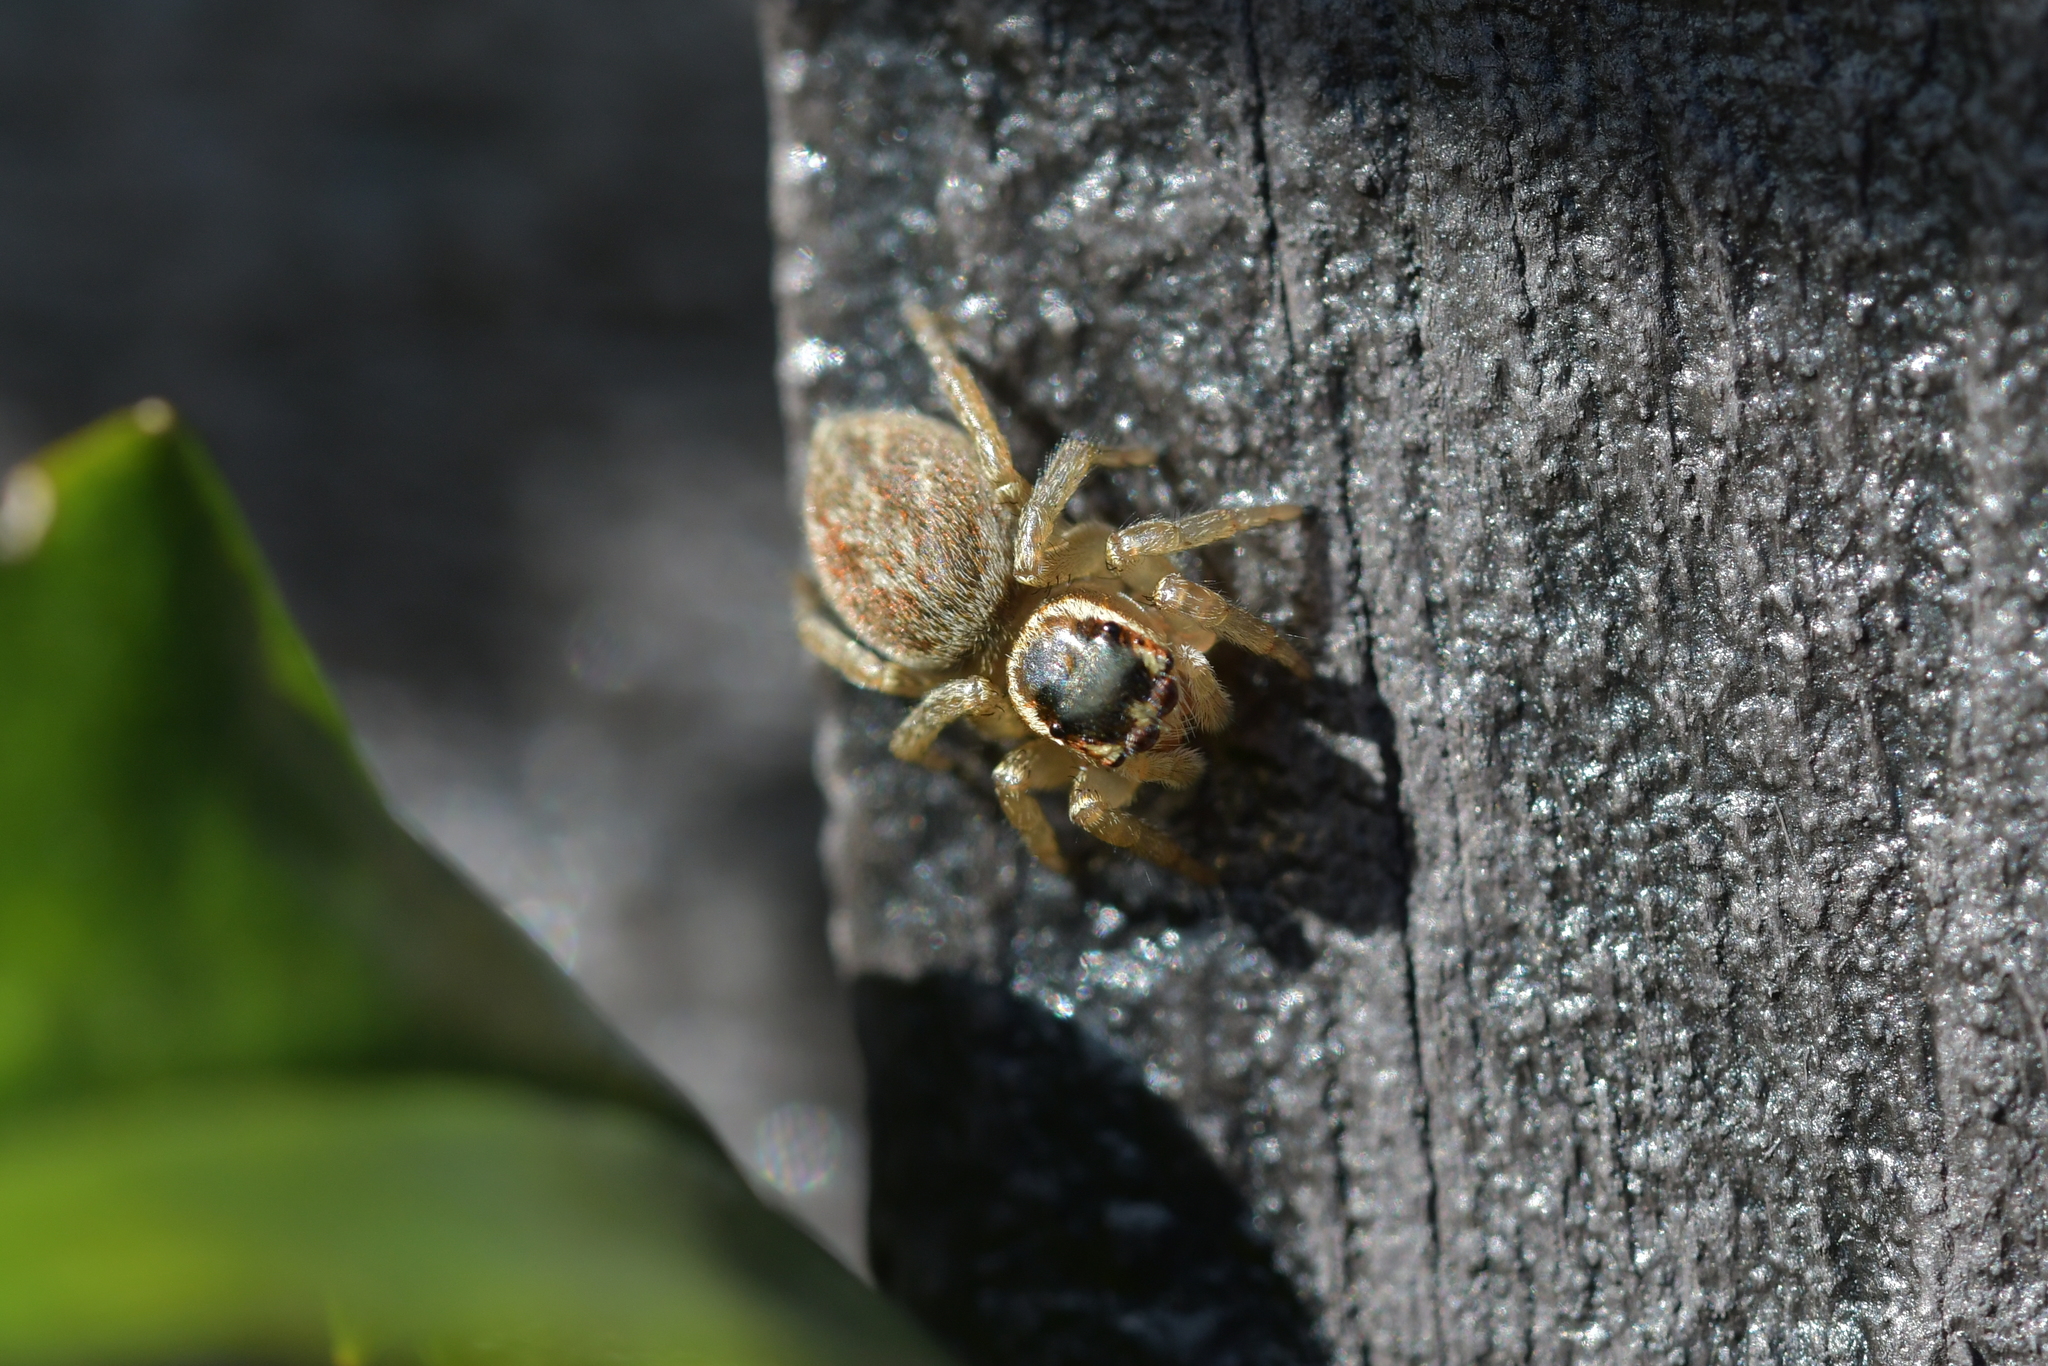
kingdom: Animalia
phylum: Arthropoda
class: Arachnida
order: Araneae
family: Salticidae
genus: Maratus
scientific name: Maratus griseus
